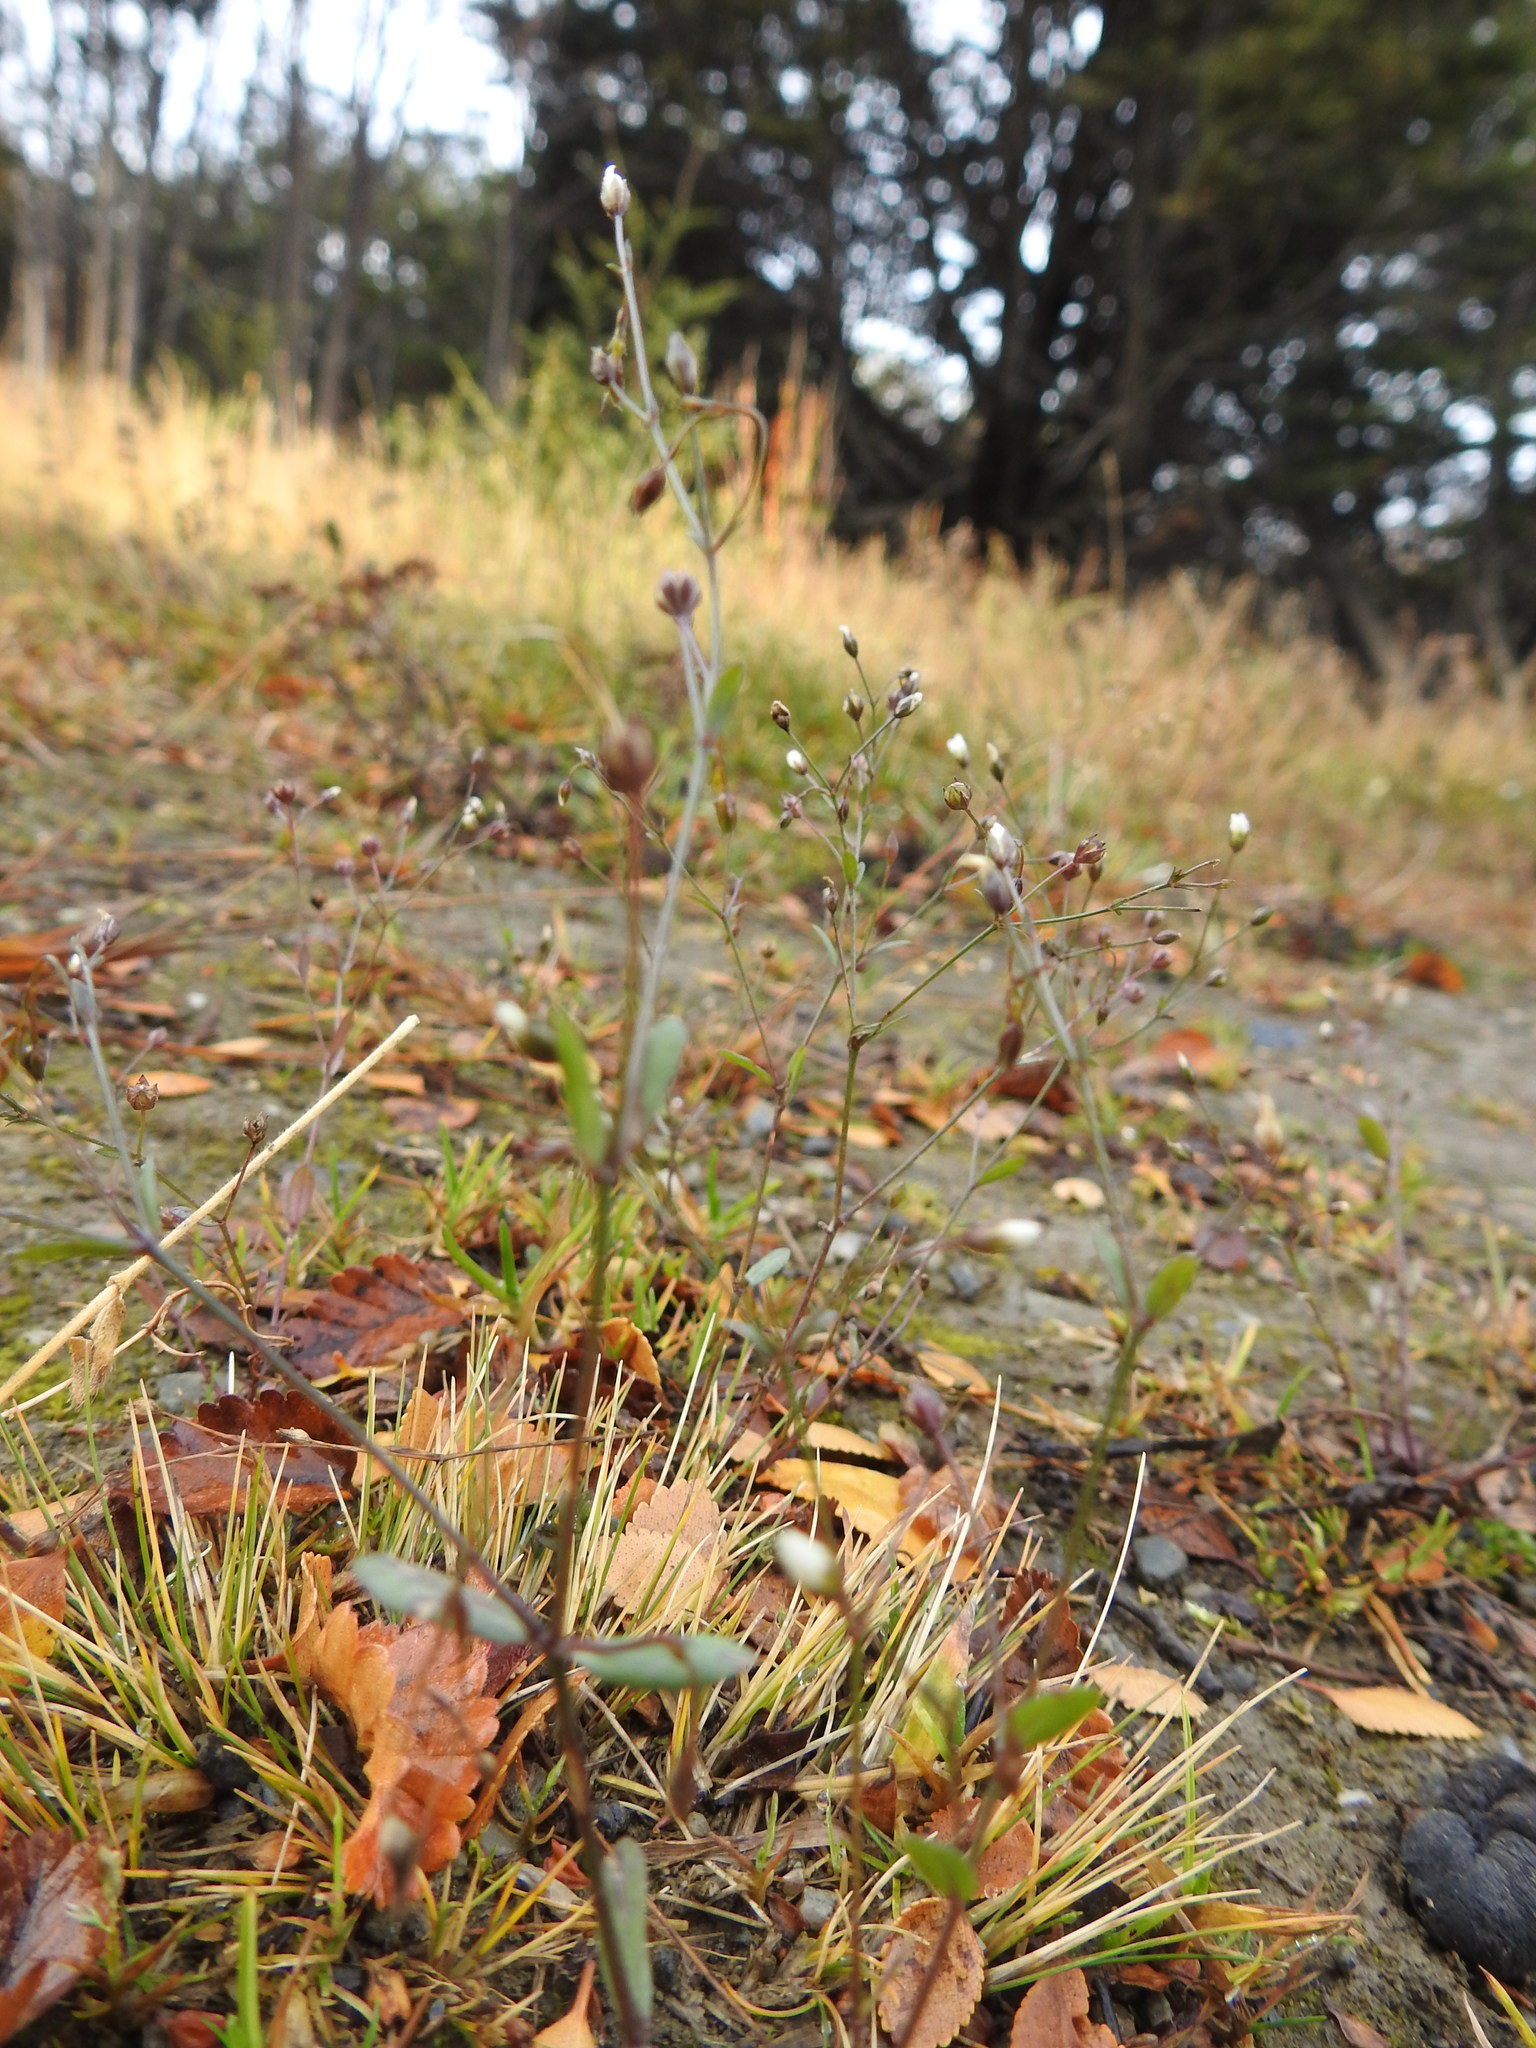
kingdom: Plantae
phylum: Tracheophyta
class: Magnoliopsida
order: Malpighiales
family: Linaceae
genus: Linum
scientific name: Linum catharticum
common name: Fairy flax
